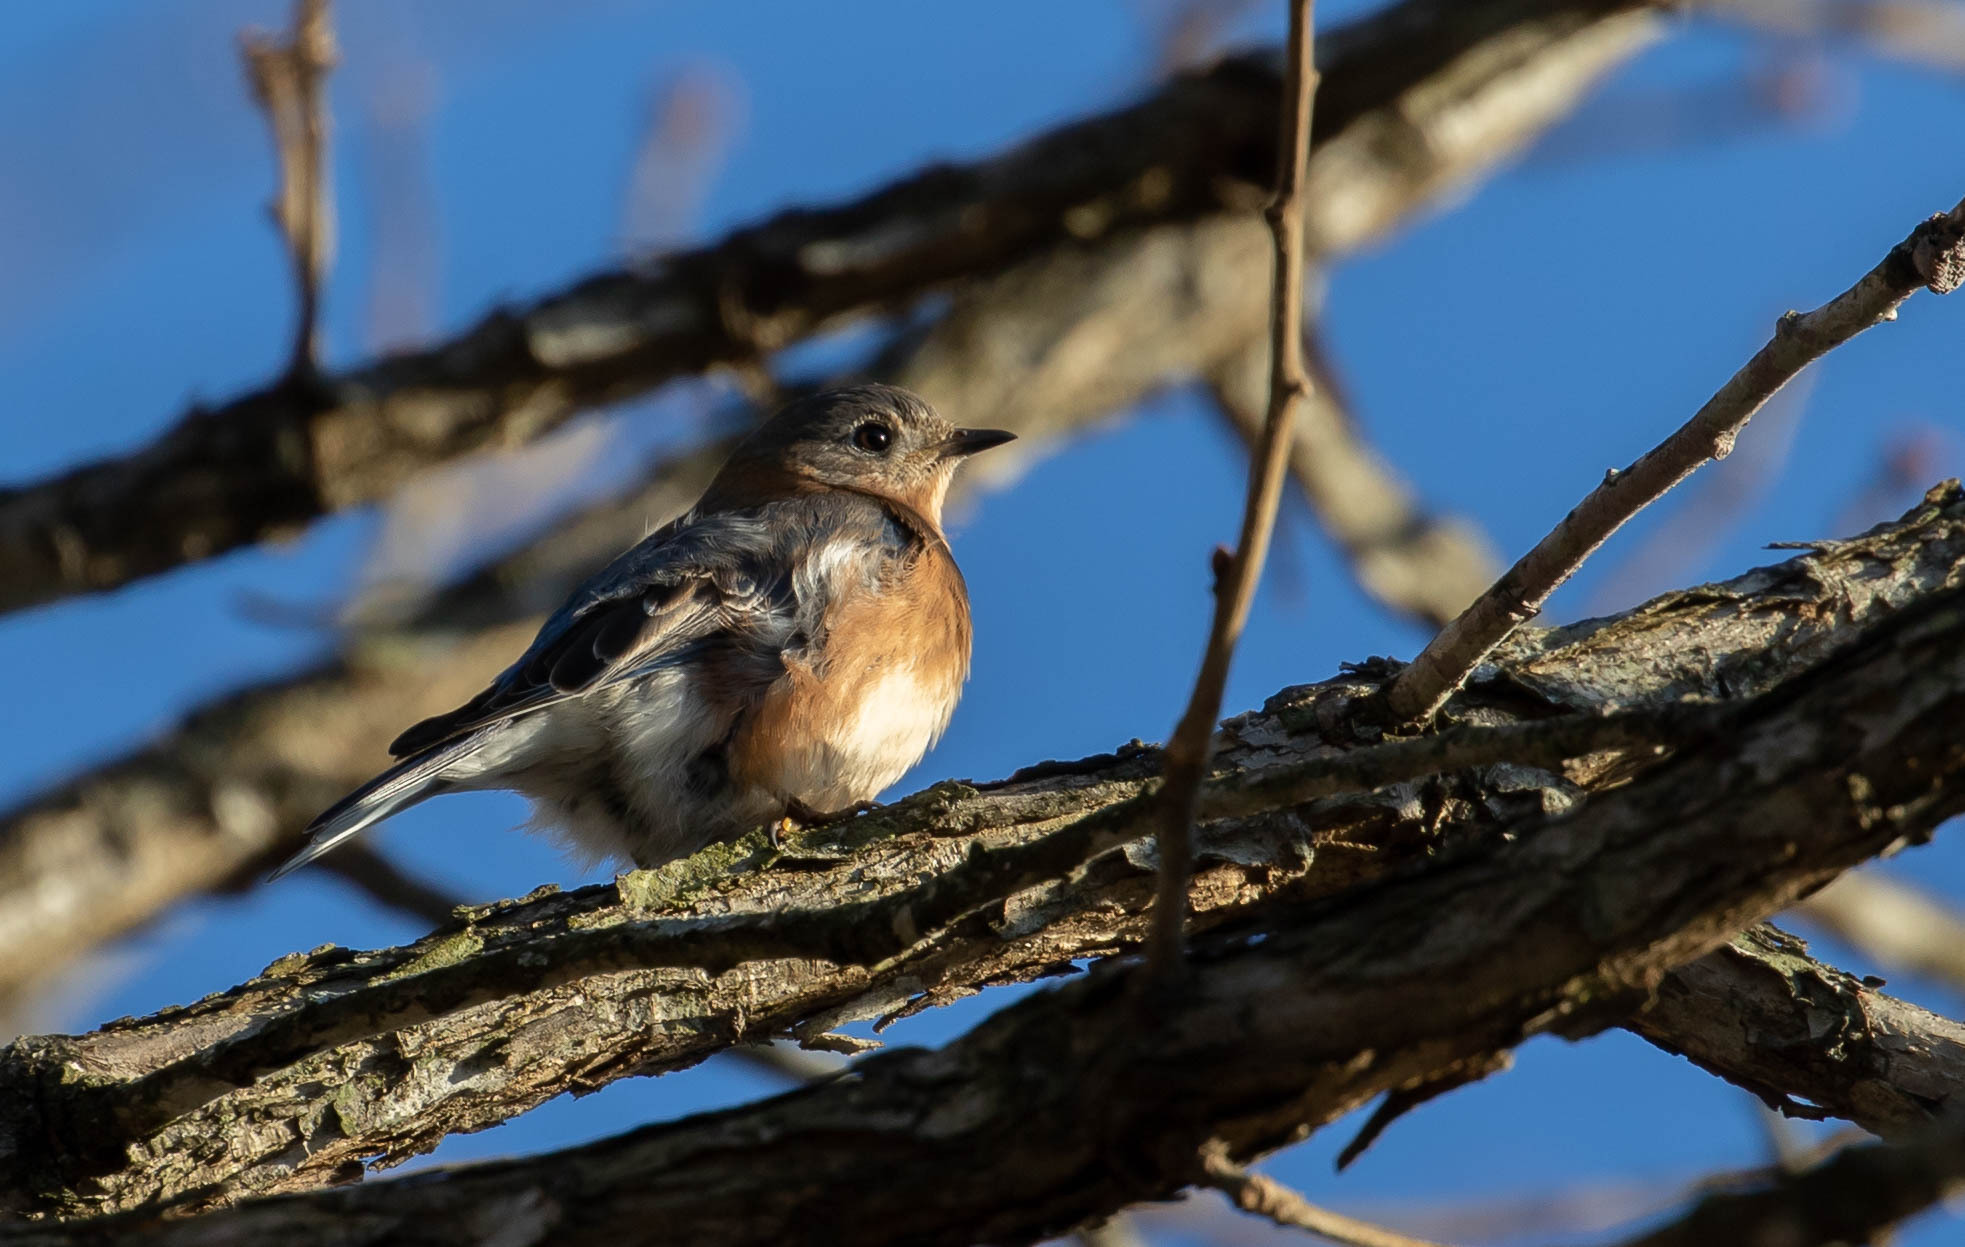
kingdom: Animalia
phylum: Chordata
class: Aves
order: Passeriformes
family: Turdidae
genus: Sialia
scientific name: Sialia sialis
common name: Eastern bluebird
